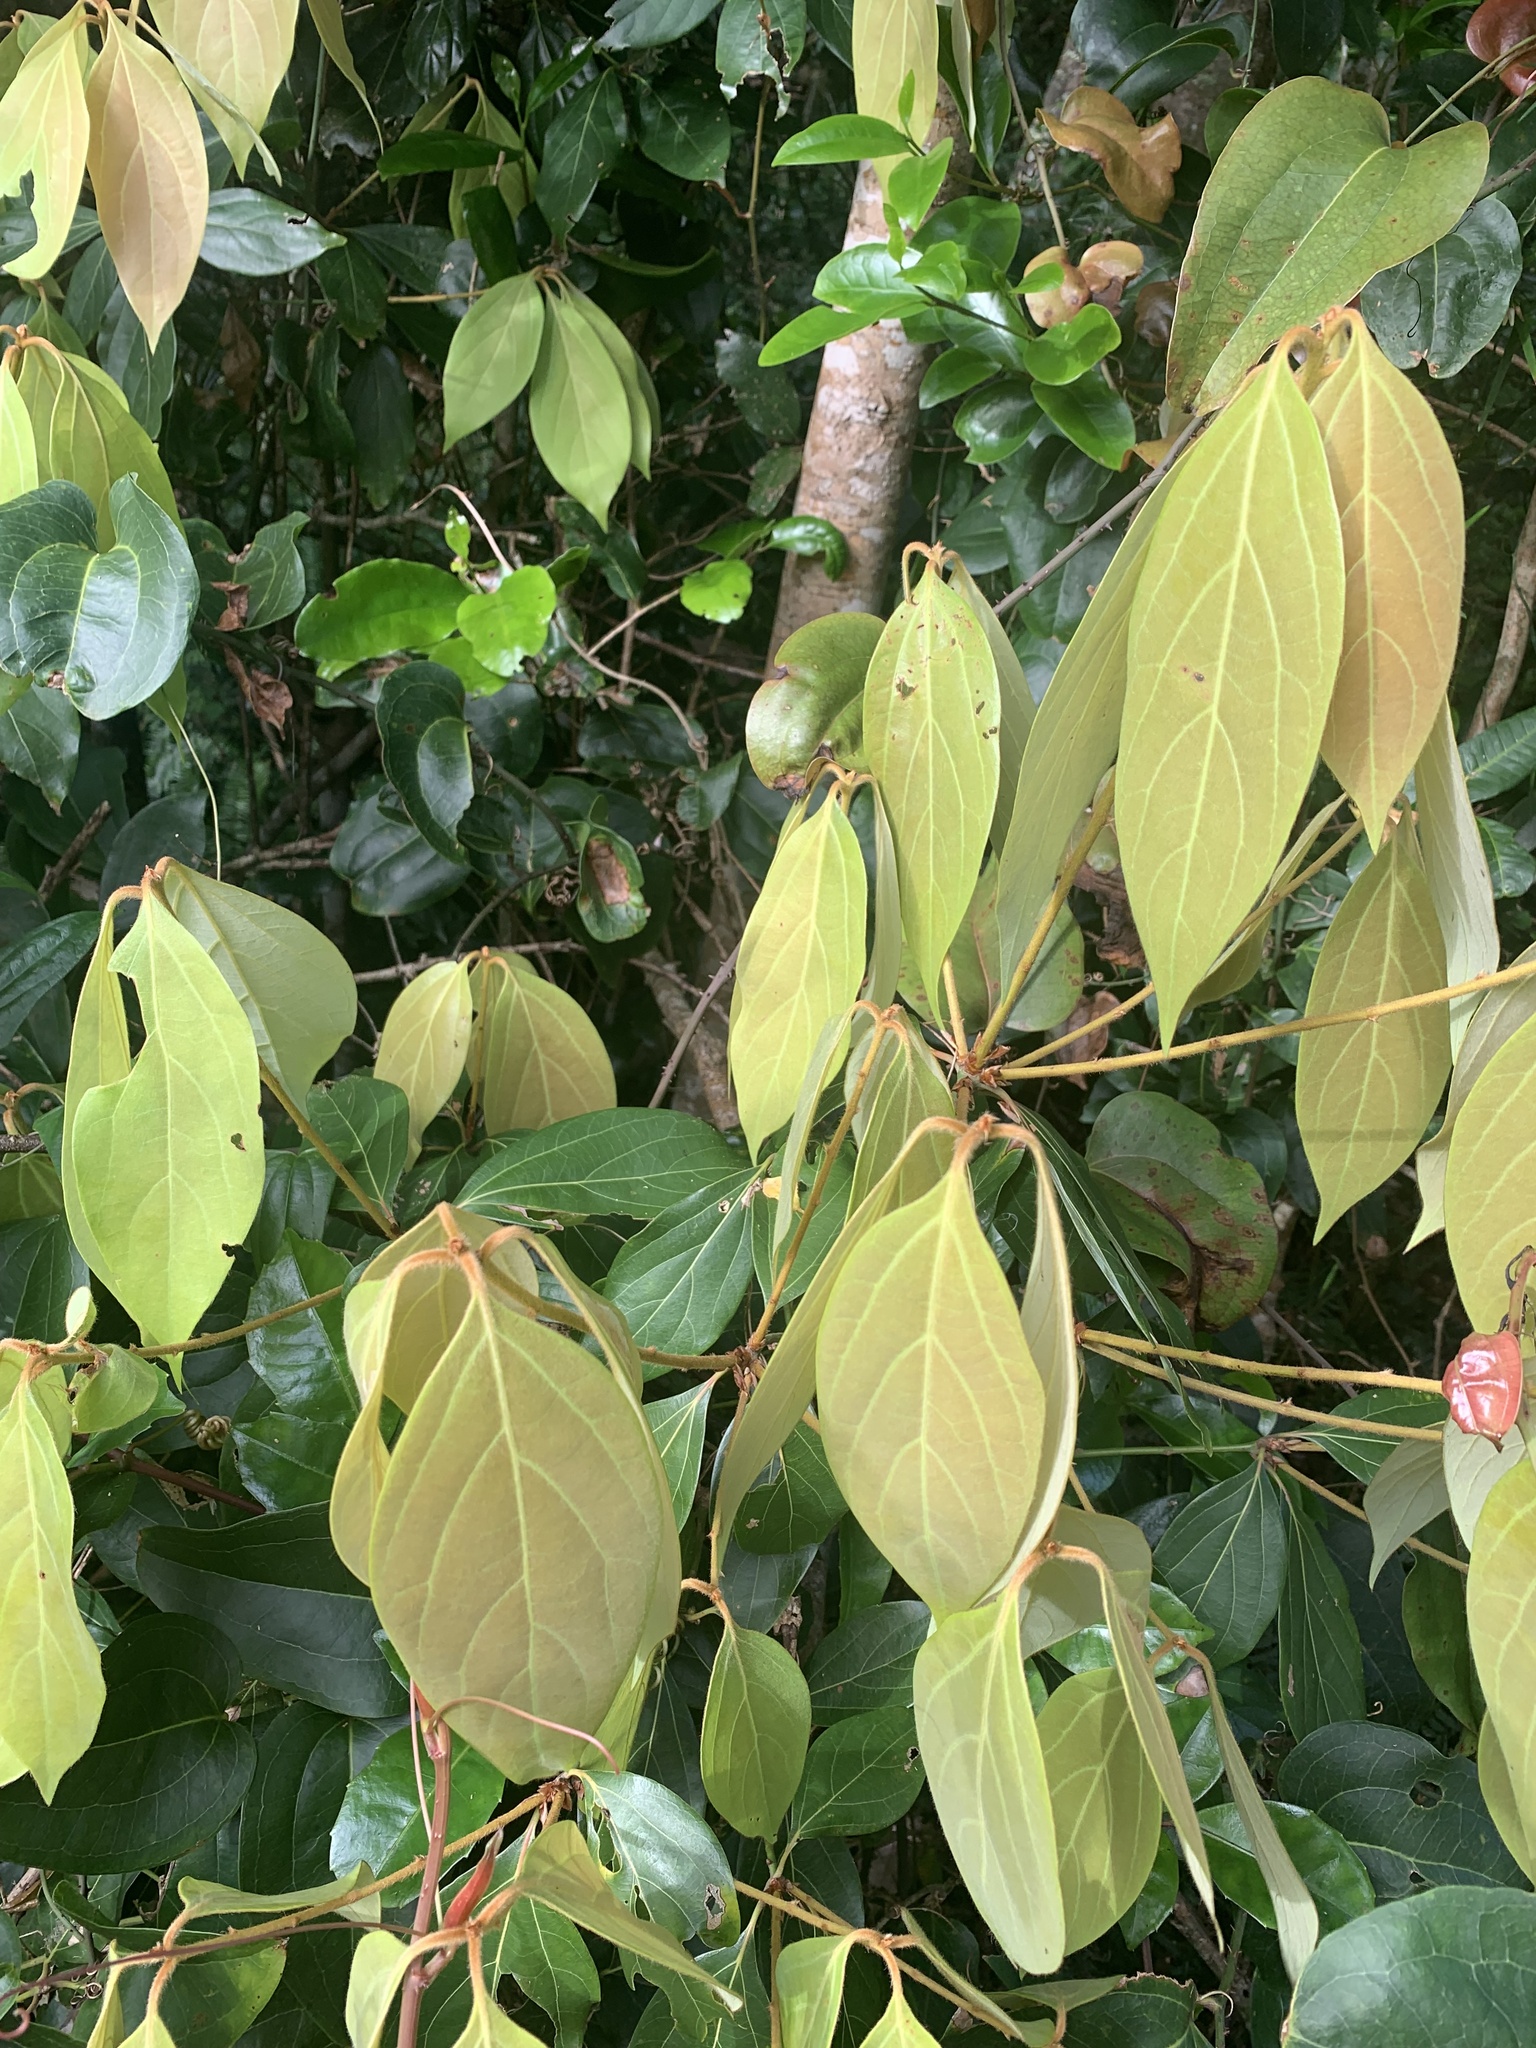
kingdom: Plantae
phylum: Tracheophyta
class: Magnoliopsida
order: Laurales
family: Lauraceae
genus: Neolitsea
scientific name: Neolitsea dealbata
